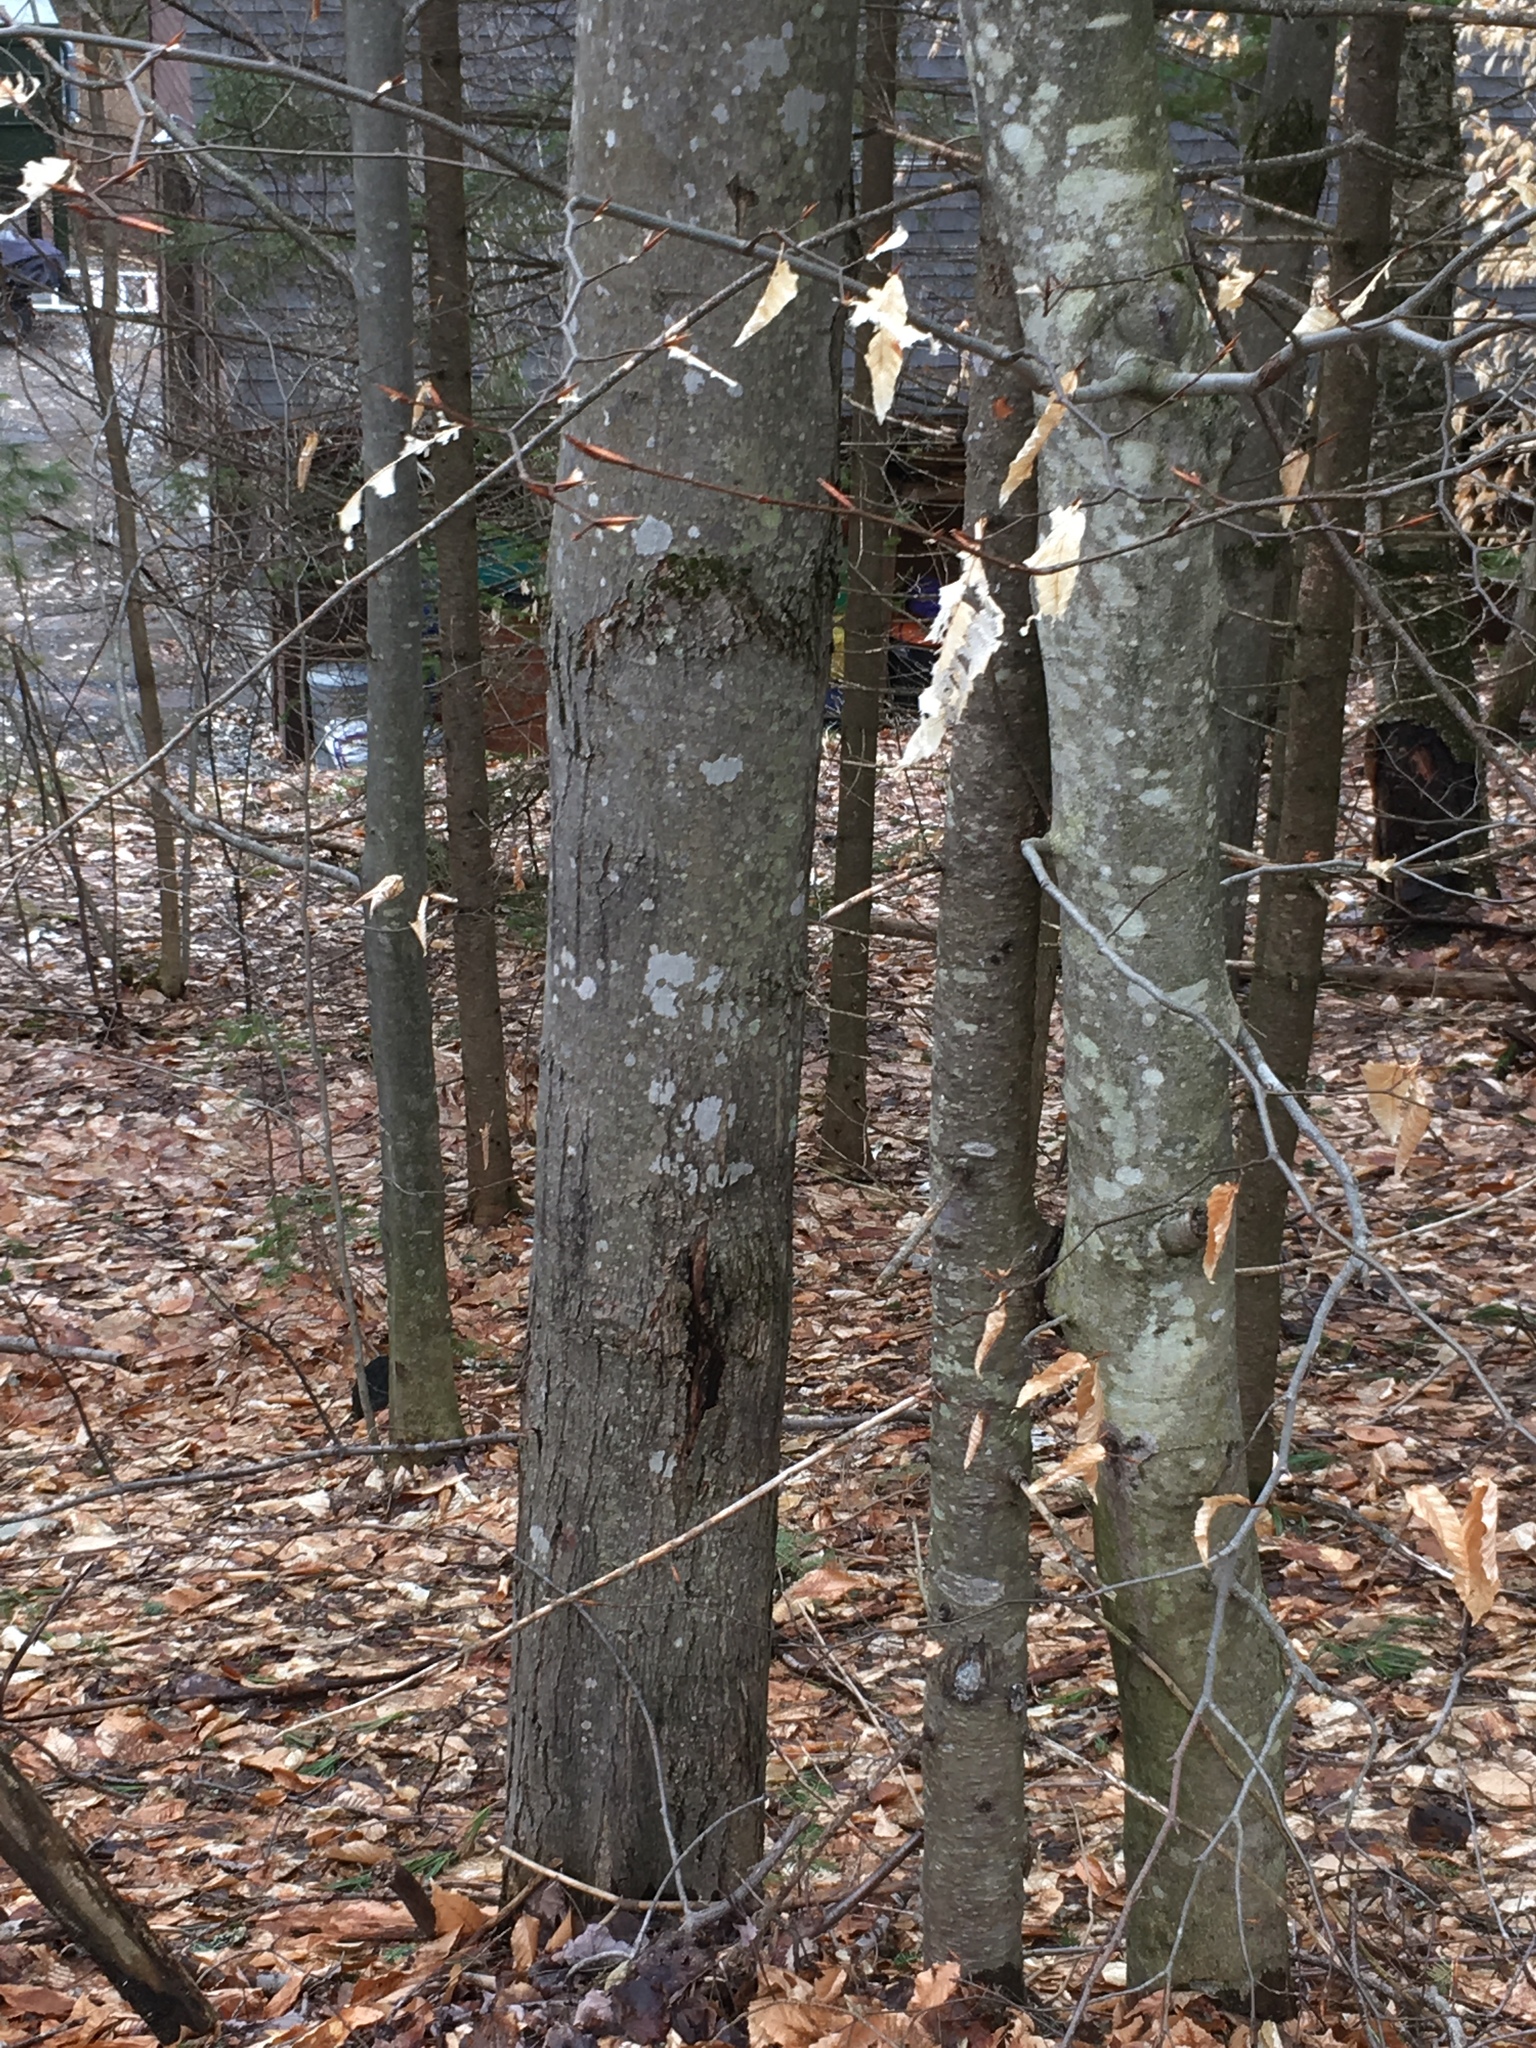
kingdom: Plantae
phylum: Tracheophyta
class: Magnoliopsida
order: Sapindales
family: Sapindaceae
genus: Acer
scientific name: Acer rubrum
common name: Red maple
